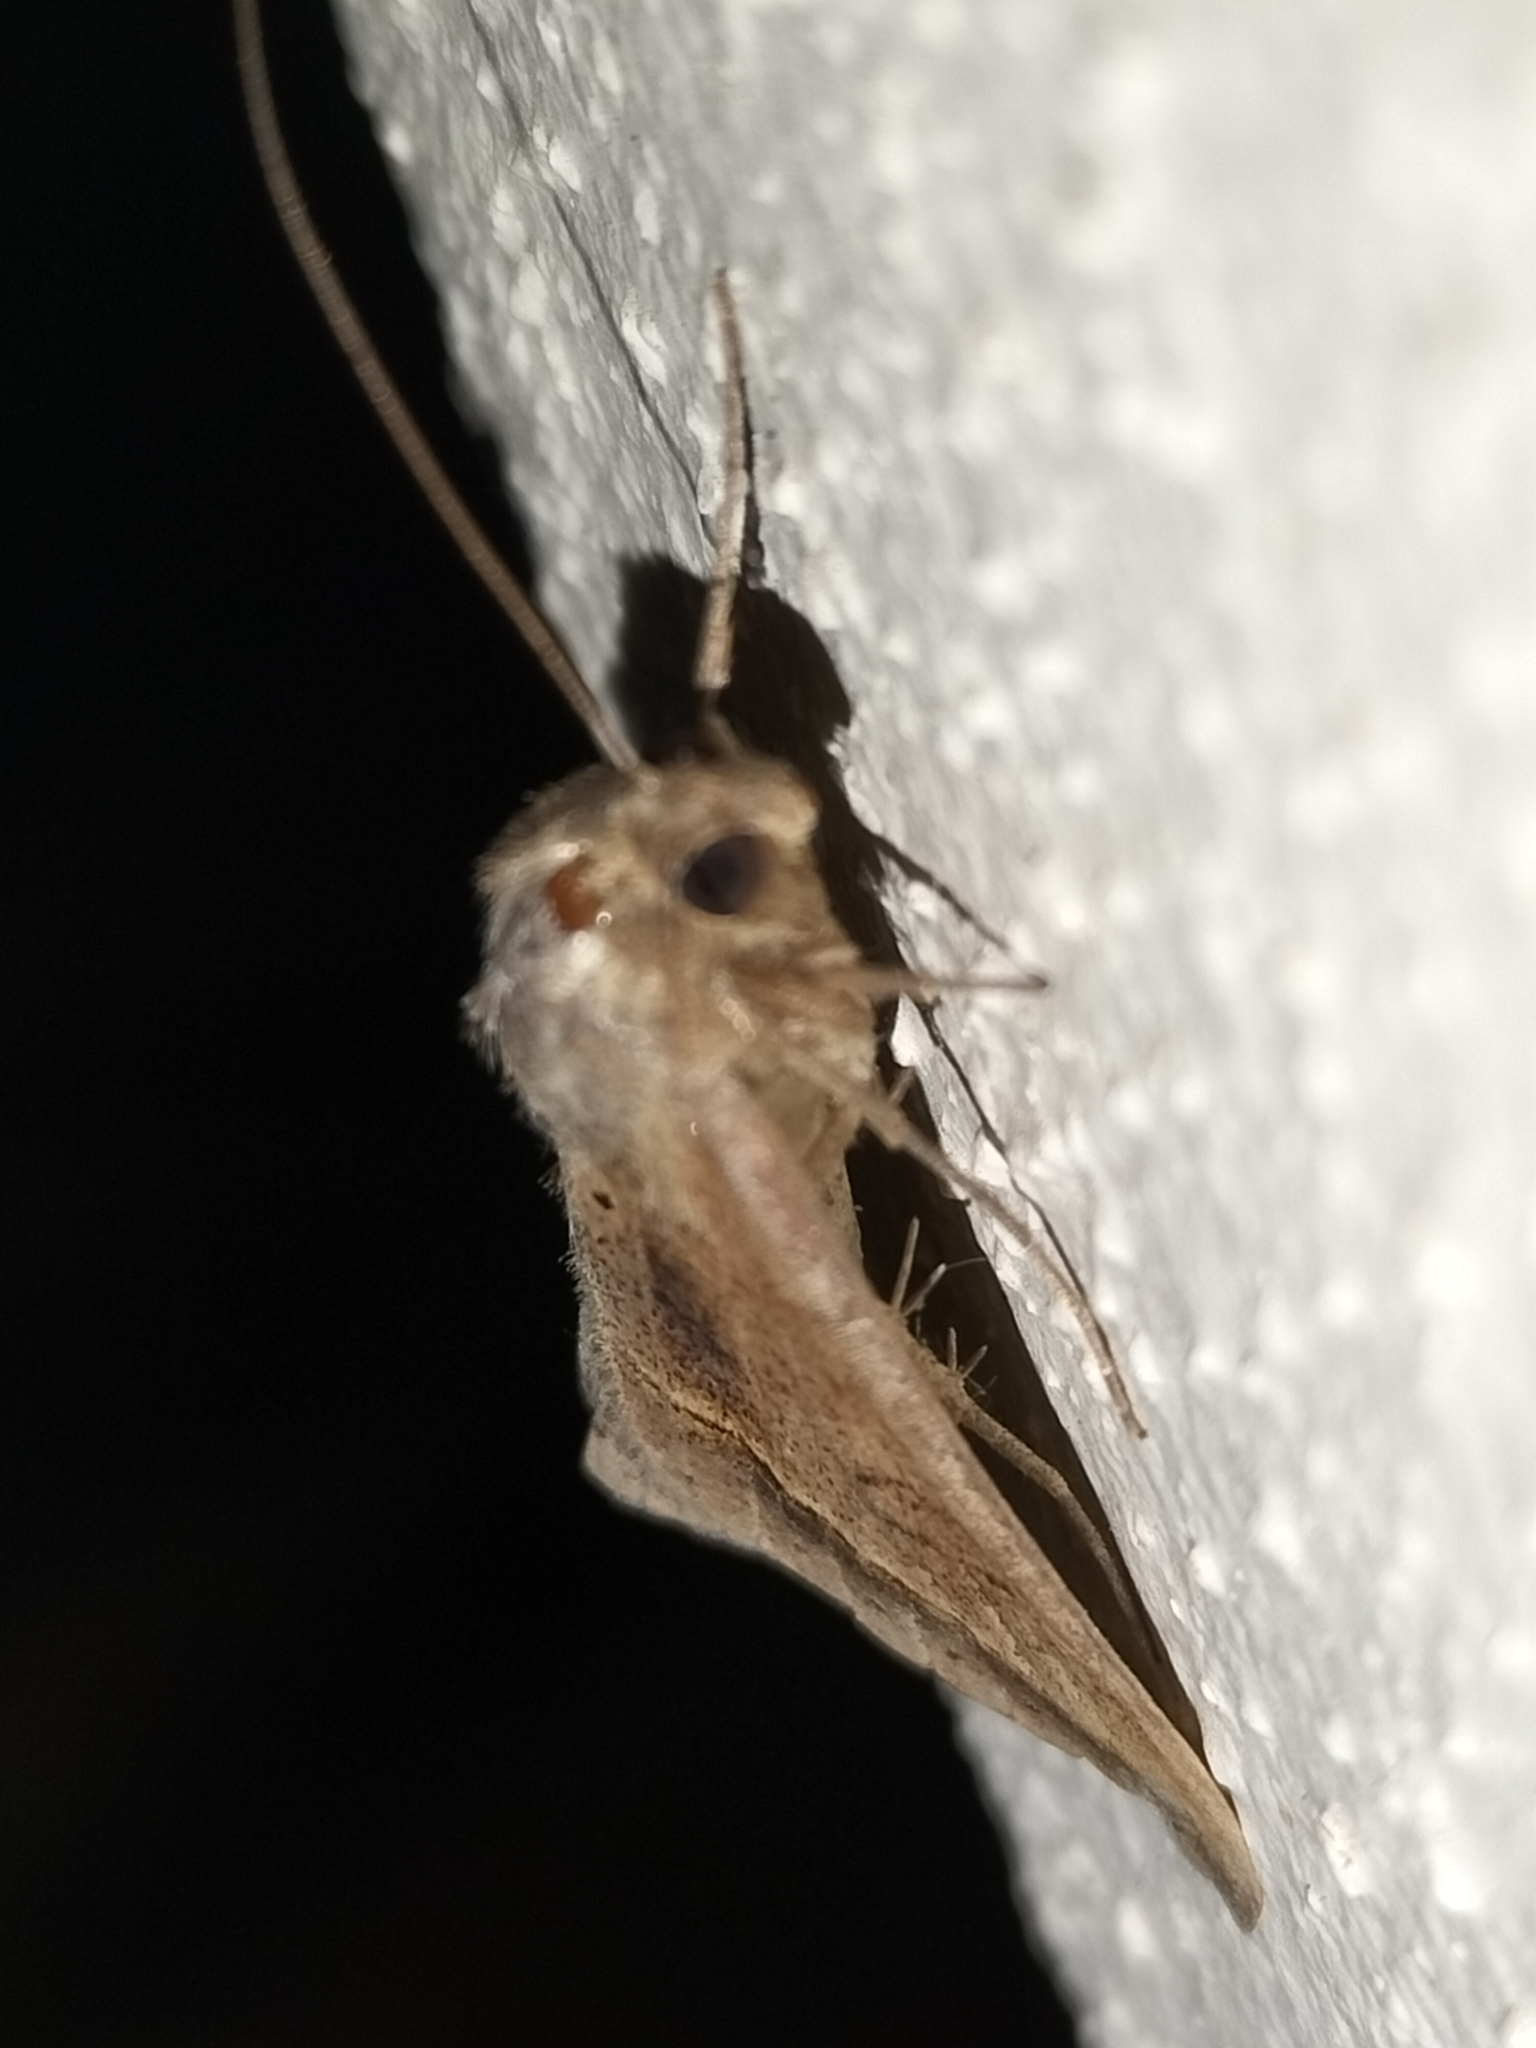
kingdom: Animalia
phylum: Arthropoda
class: Insecta
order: Lepidoptera
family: Erebidae
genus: Mocis
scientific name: Mocis frugalis
